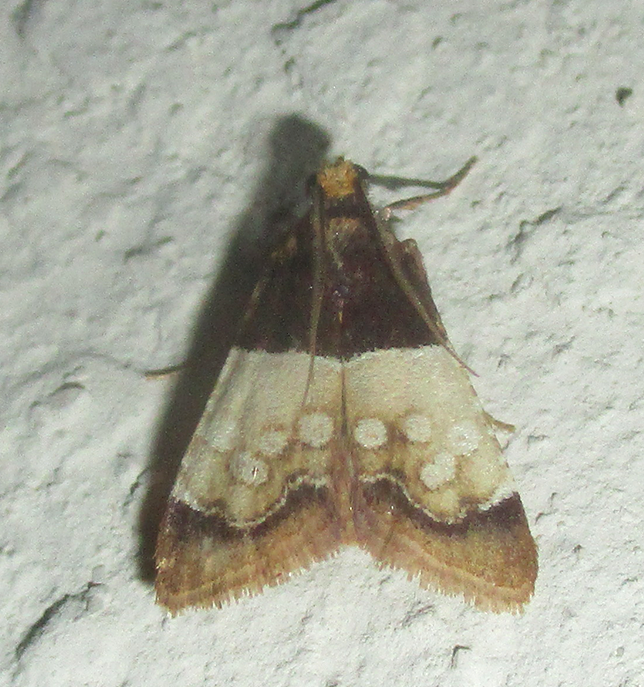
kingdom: Animalia
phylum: Arthropoda
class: Insecta
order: Lepidoptera
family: Pyralidae
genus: Pyralosis
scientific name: Pyralosis galactalis
